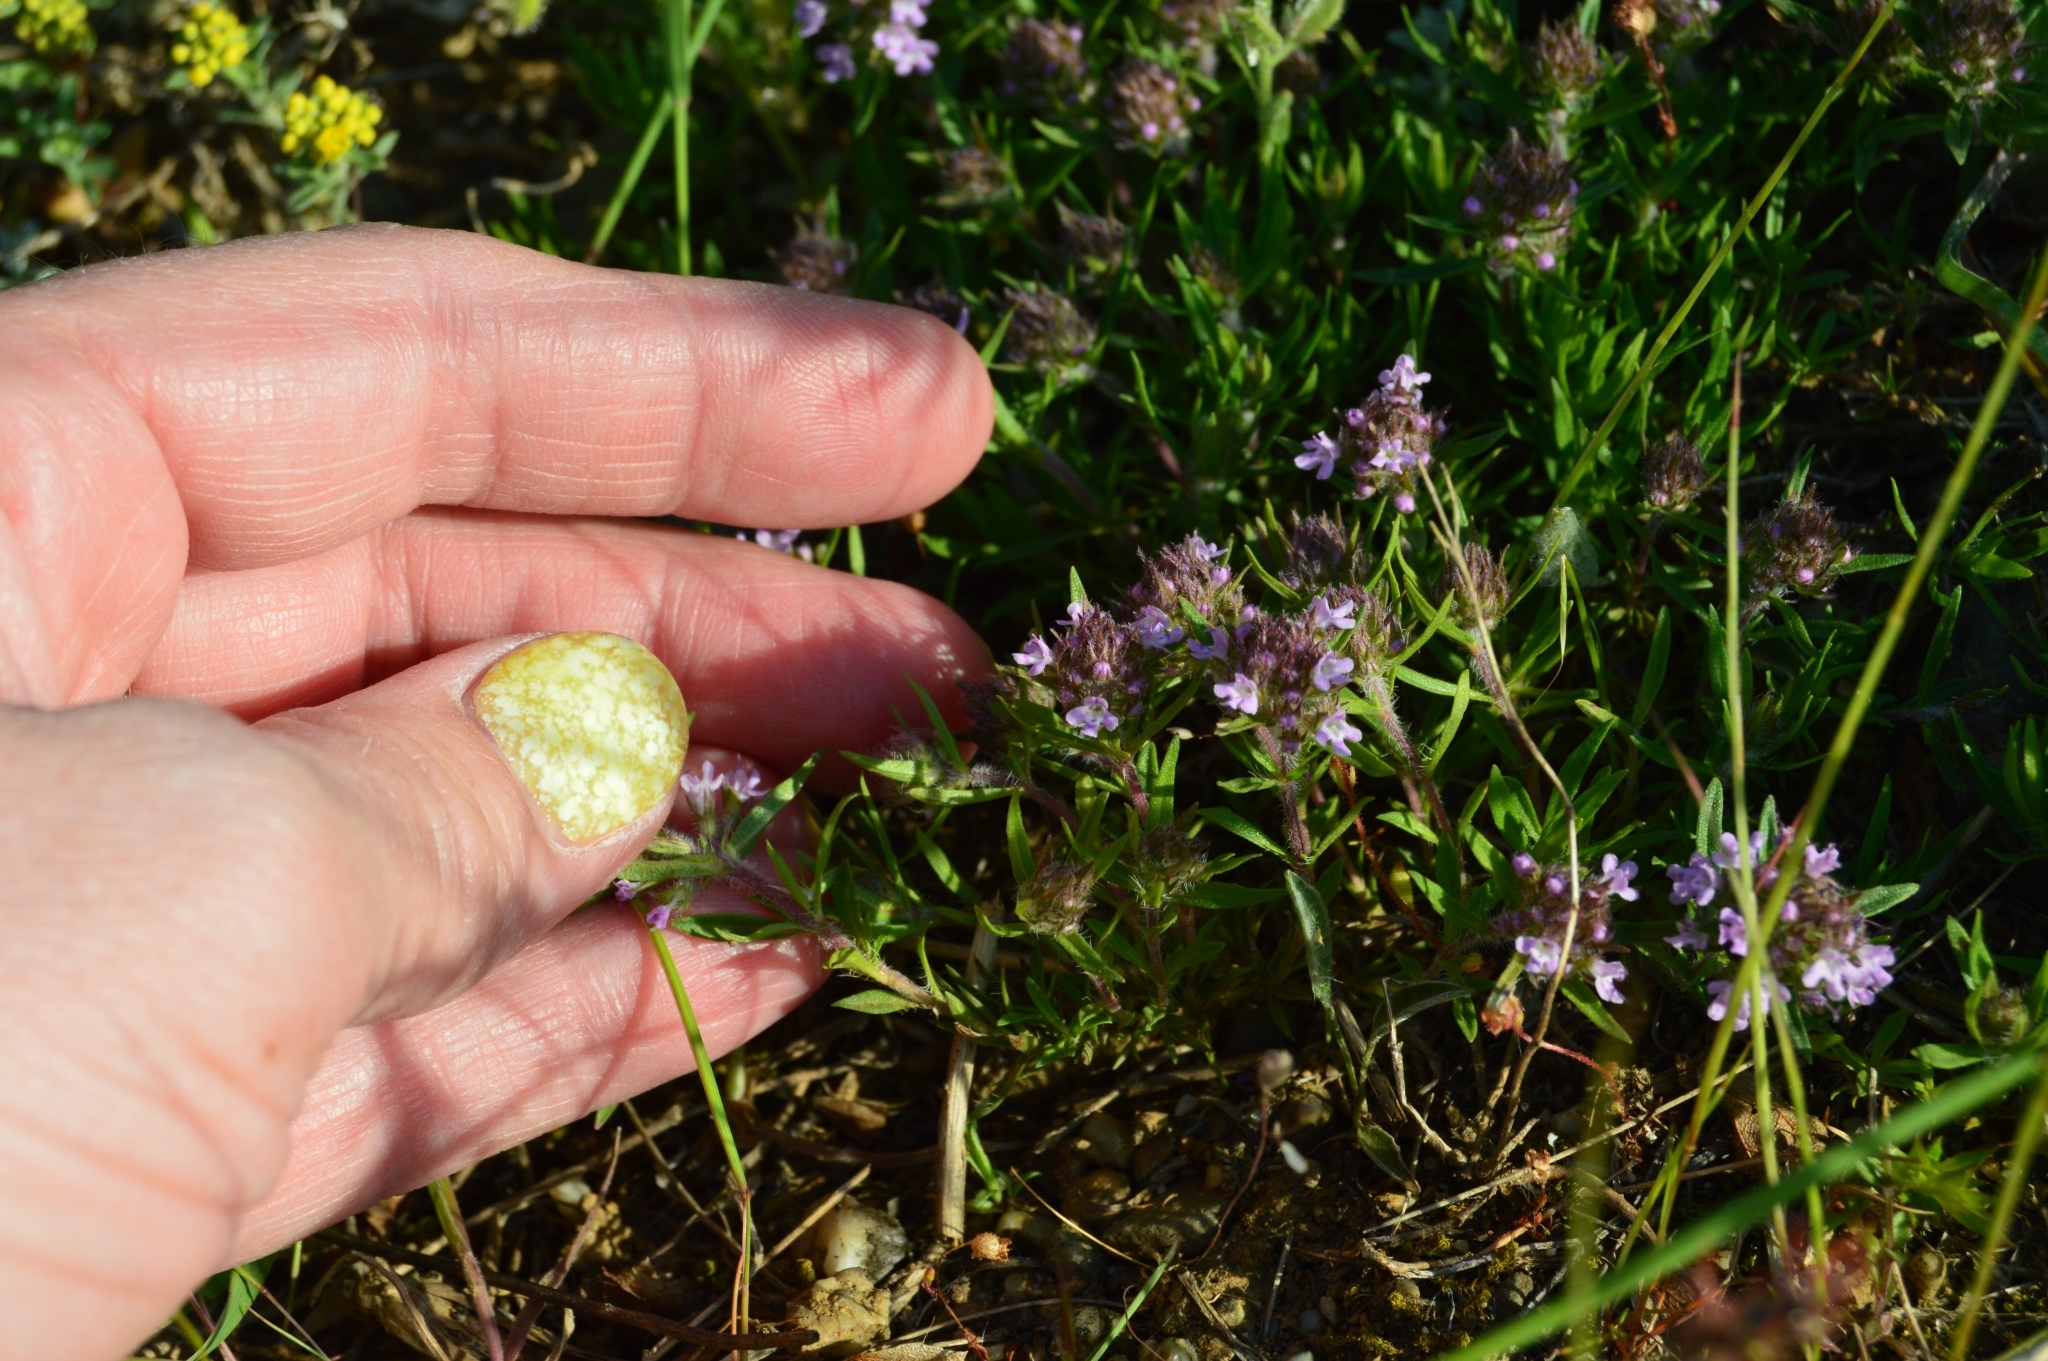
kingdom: Plantae
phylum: Tracheophyta
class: Magnoliopsida
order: Lamiales
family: Lamiaceae
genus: Thymus
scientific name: Thymus callieri
